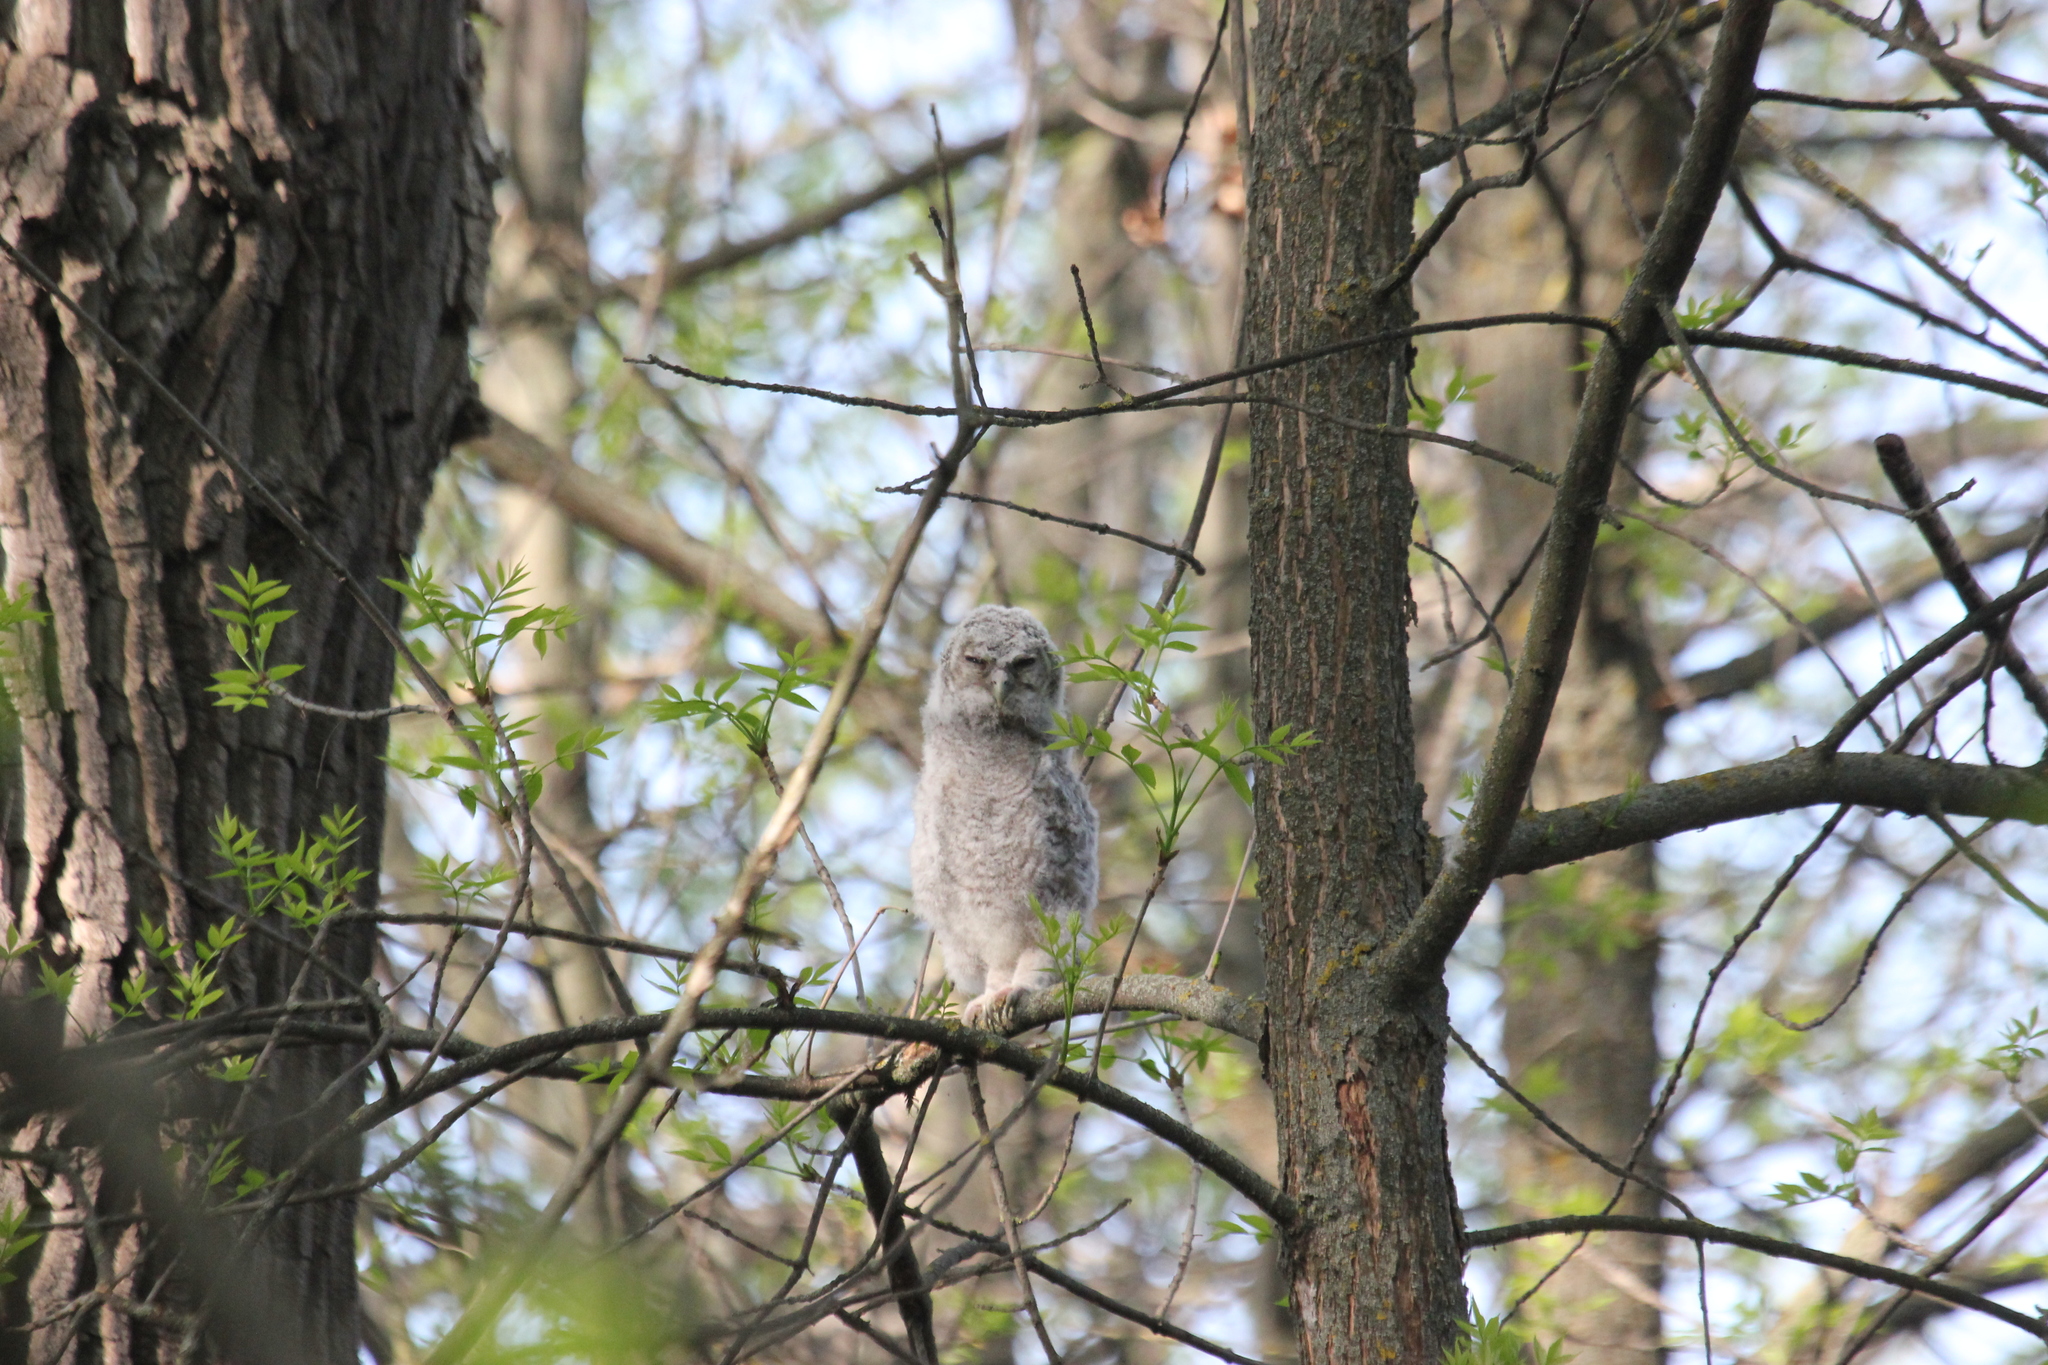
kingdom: Animalia
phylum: Chordata
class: Aves
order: Strigiformes
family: Strigidae
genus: Strix
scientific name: Strix aluco
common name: Tawny owl
